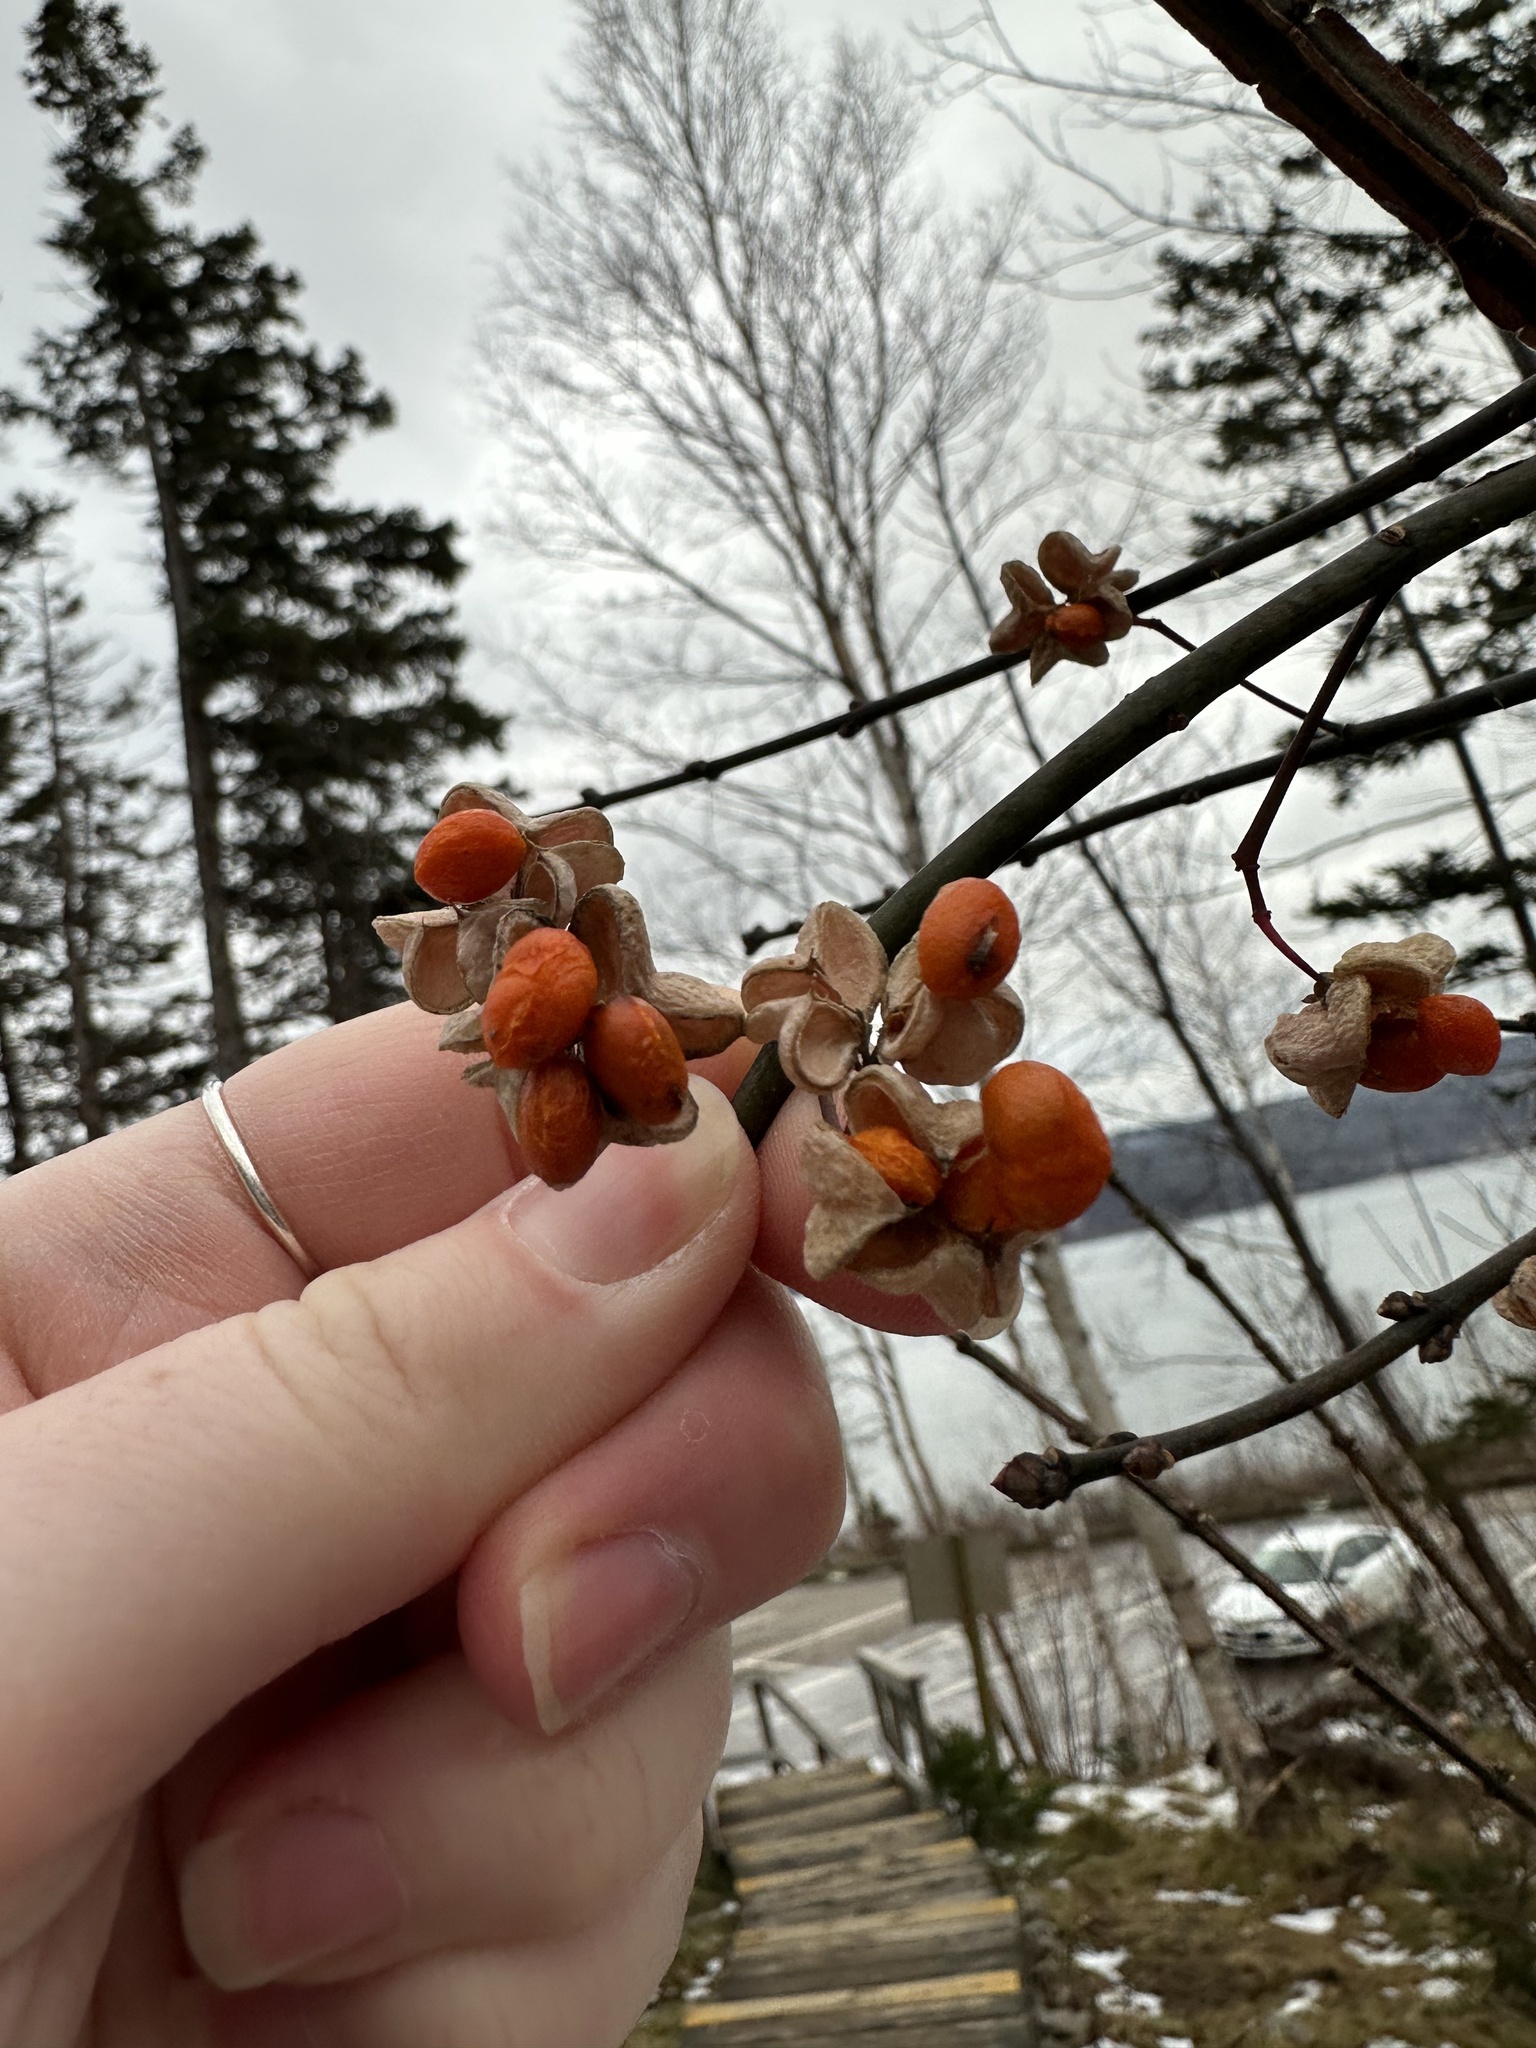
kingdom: Plantae
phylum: Tracheophyta
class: Magnoliopsida
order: Celastrales
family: Celastraceae
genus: Euonymus
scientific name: Euonymus europaeus
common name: Spindle
